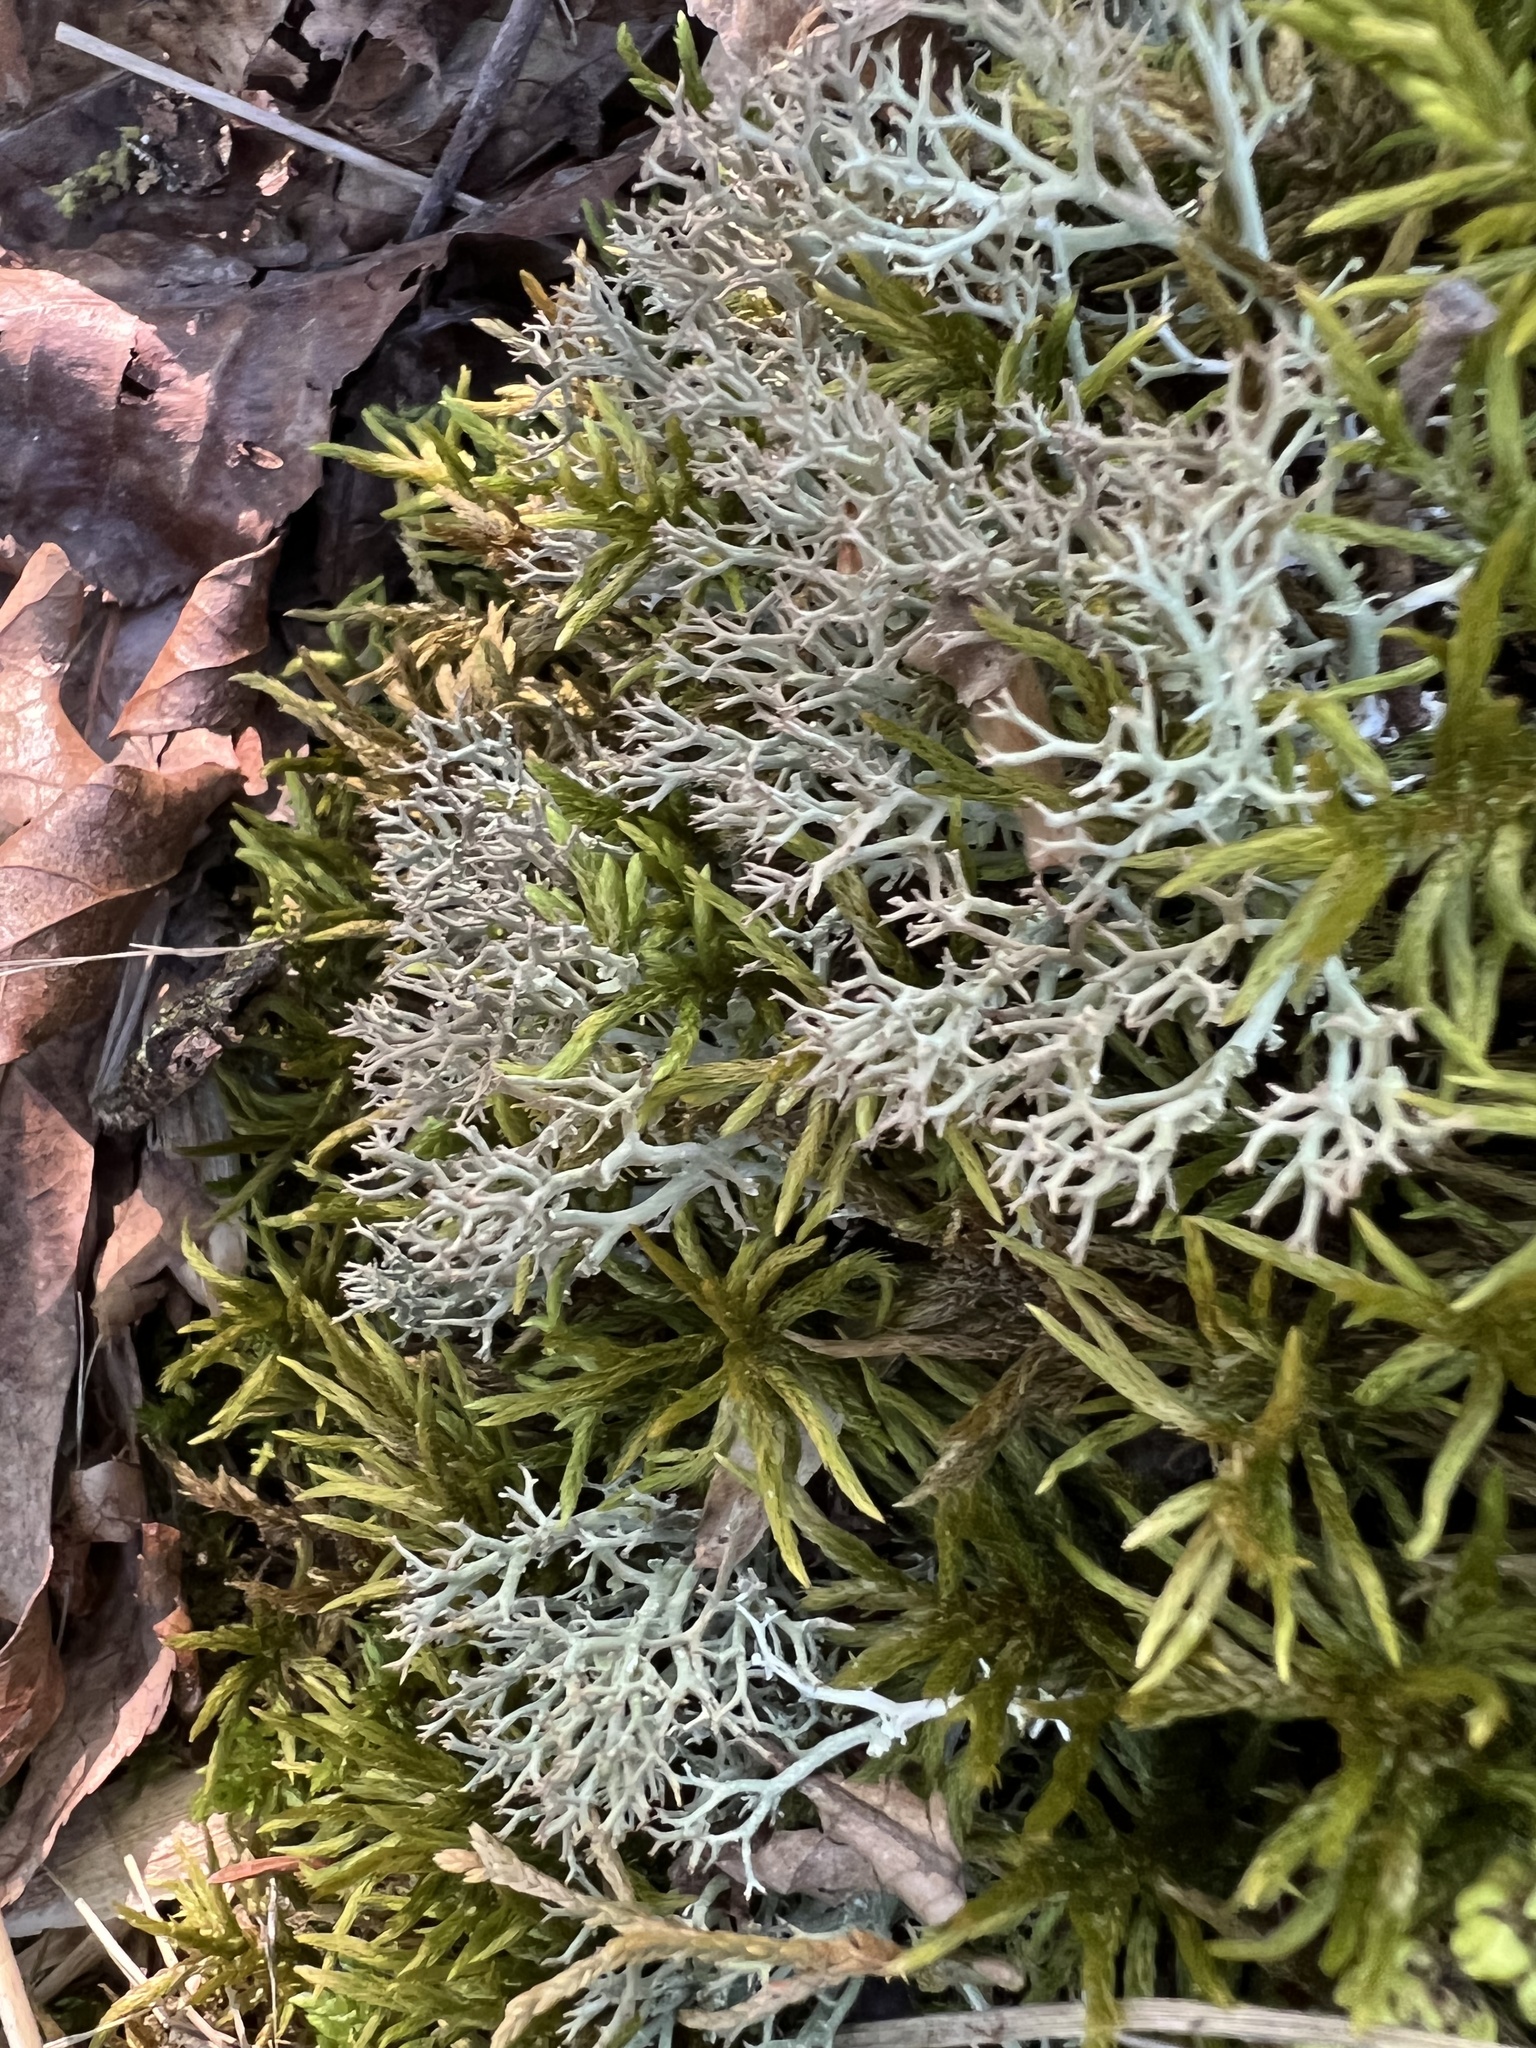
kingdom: Fungi
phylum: Ascomycota
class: Lecanoromycetes
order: Lecanorales
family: Cladoniaceae
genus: Cladonia
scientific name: Cladonia furcata
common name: Many-forked cladonia
